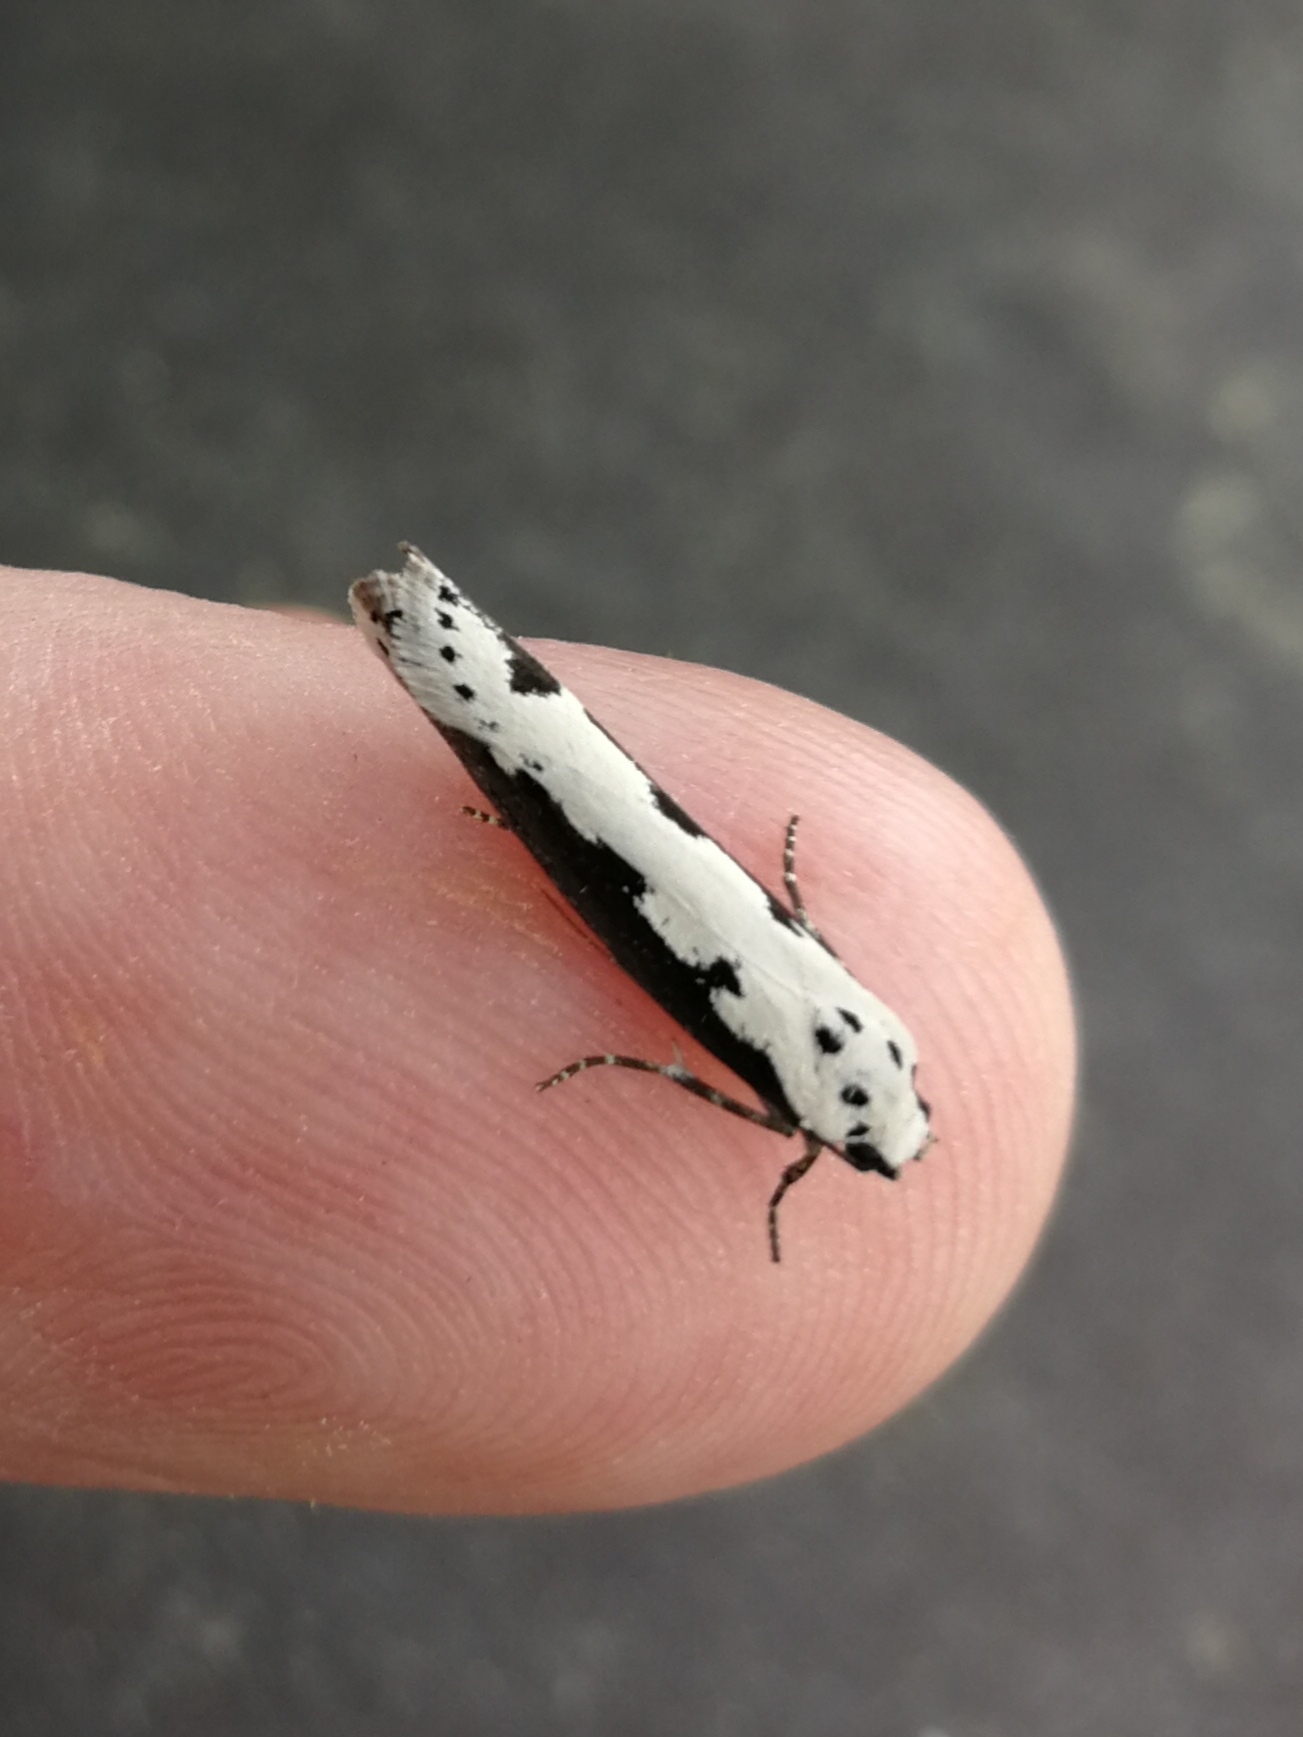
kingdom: Animalia
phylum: Arthropoda
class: Insecta
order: Lepidoptera
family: Ethmiidae
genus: Ethmia
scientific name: Ethmia bipunctella
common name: Bordered ermel
